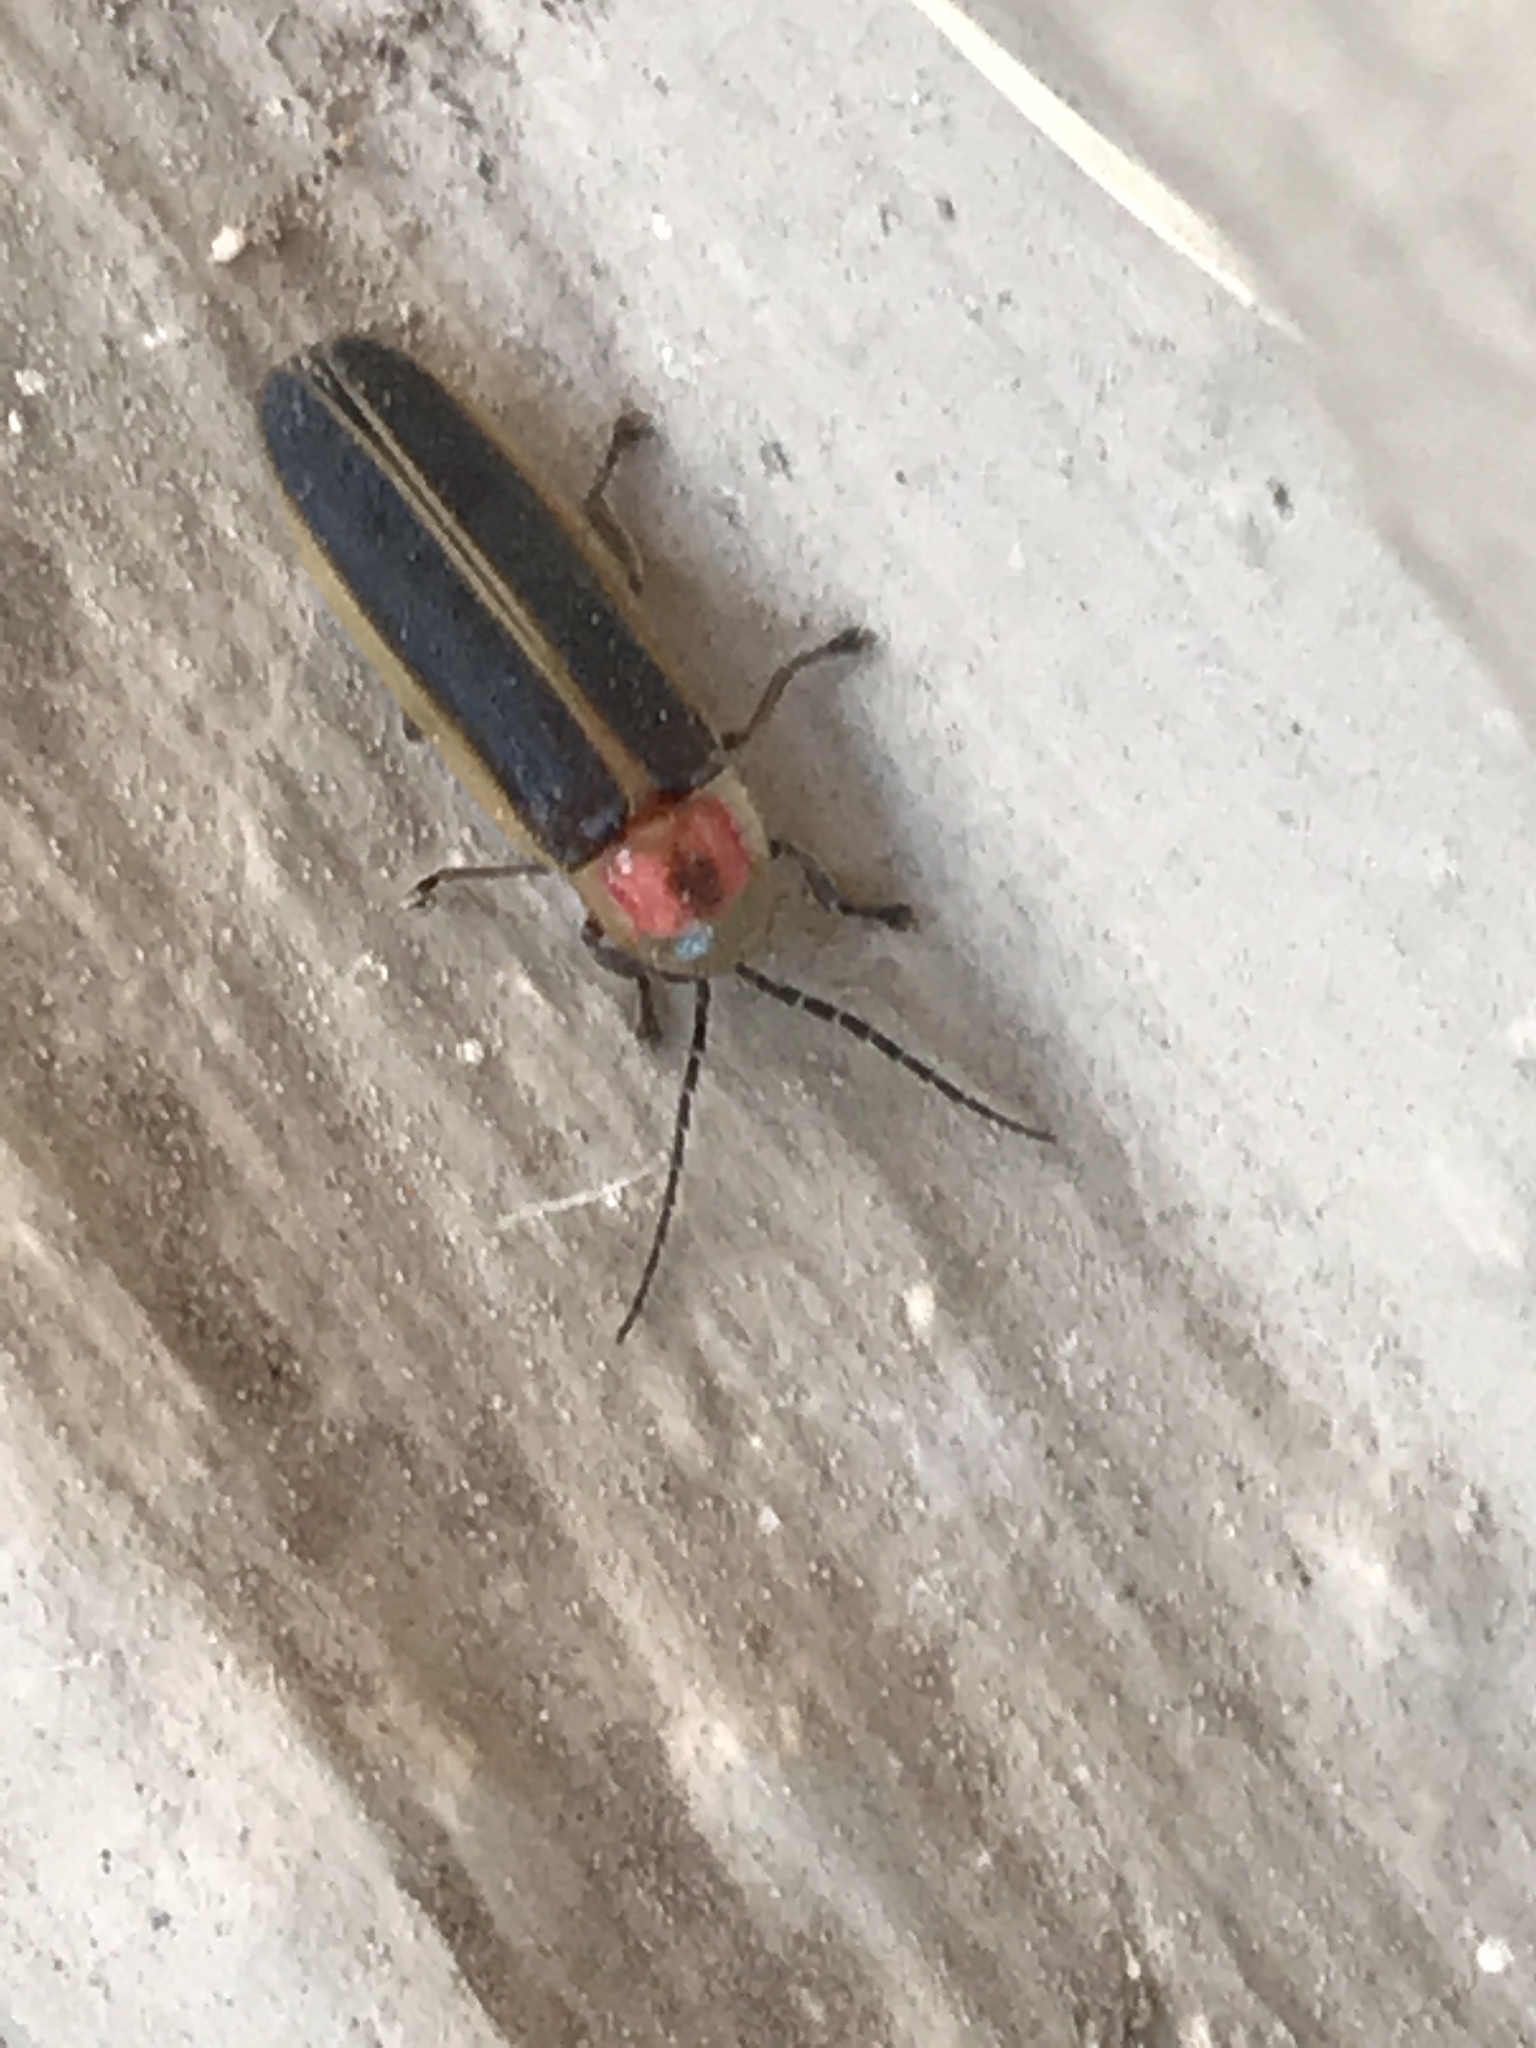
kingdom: Animalia
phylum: Arthropoda
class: Insecta
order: Coleoptera
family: Lampyridae
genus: Photinus
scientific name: Photinus pyralis
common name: Big dipper firefly
